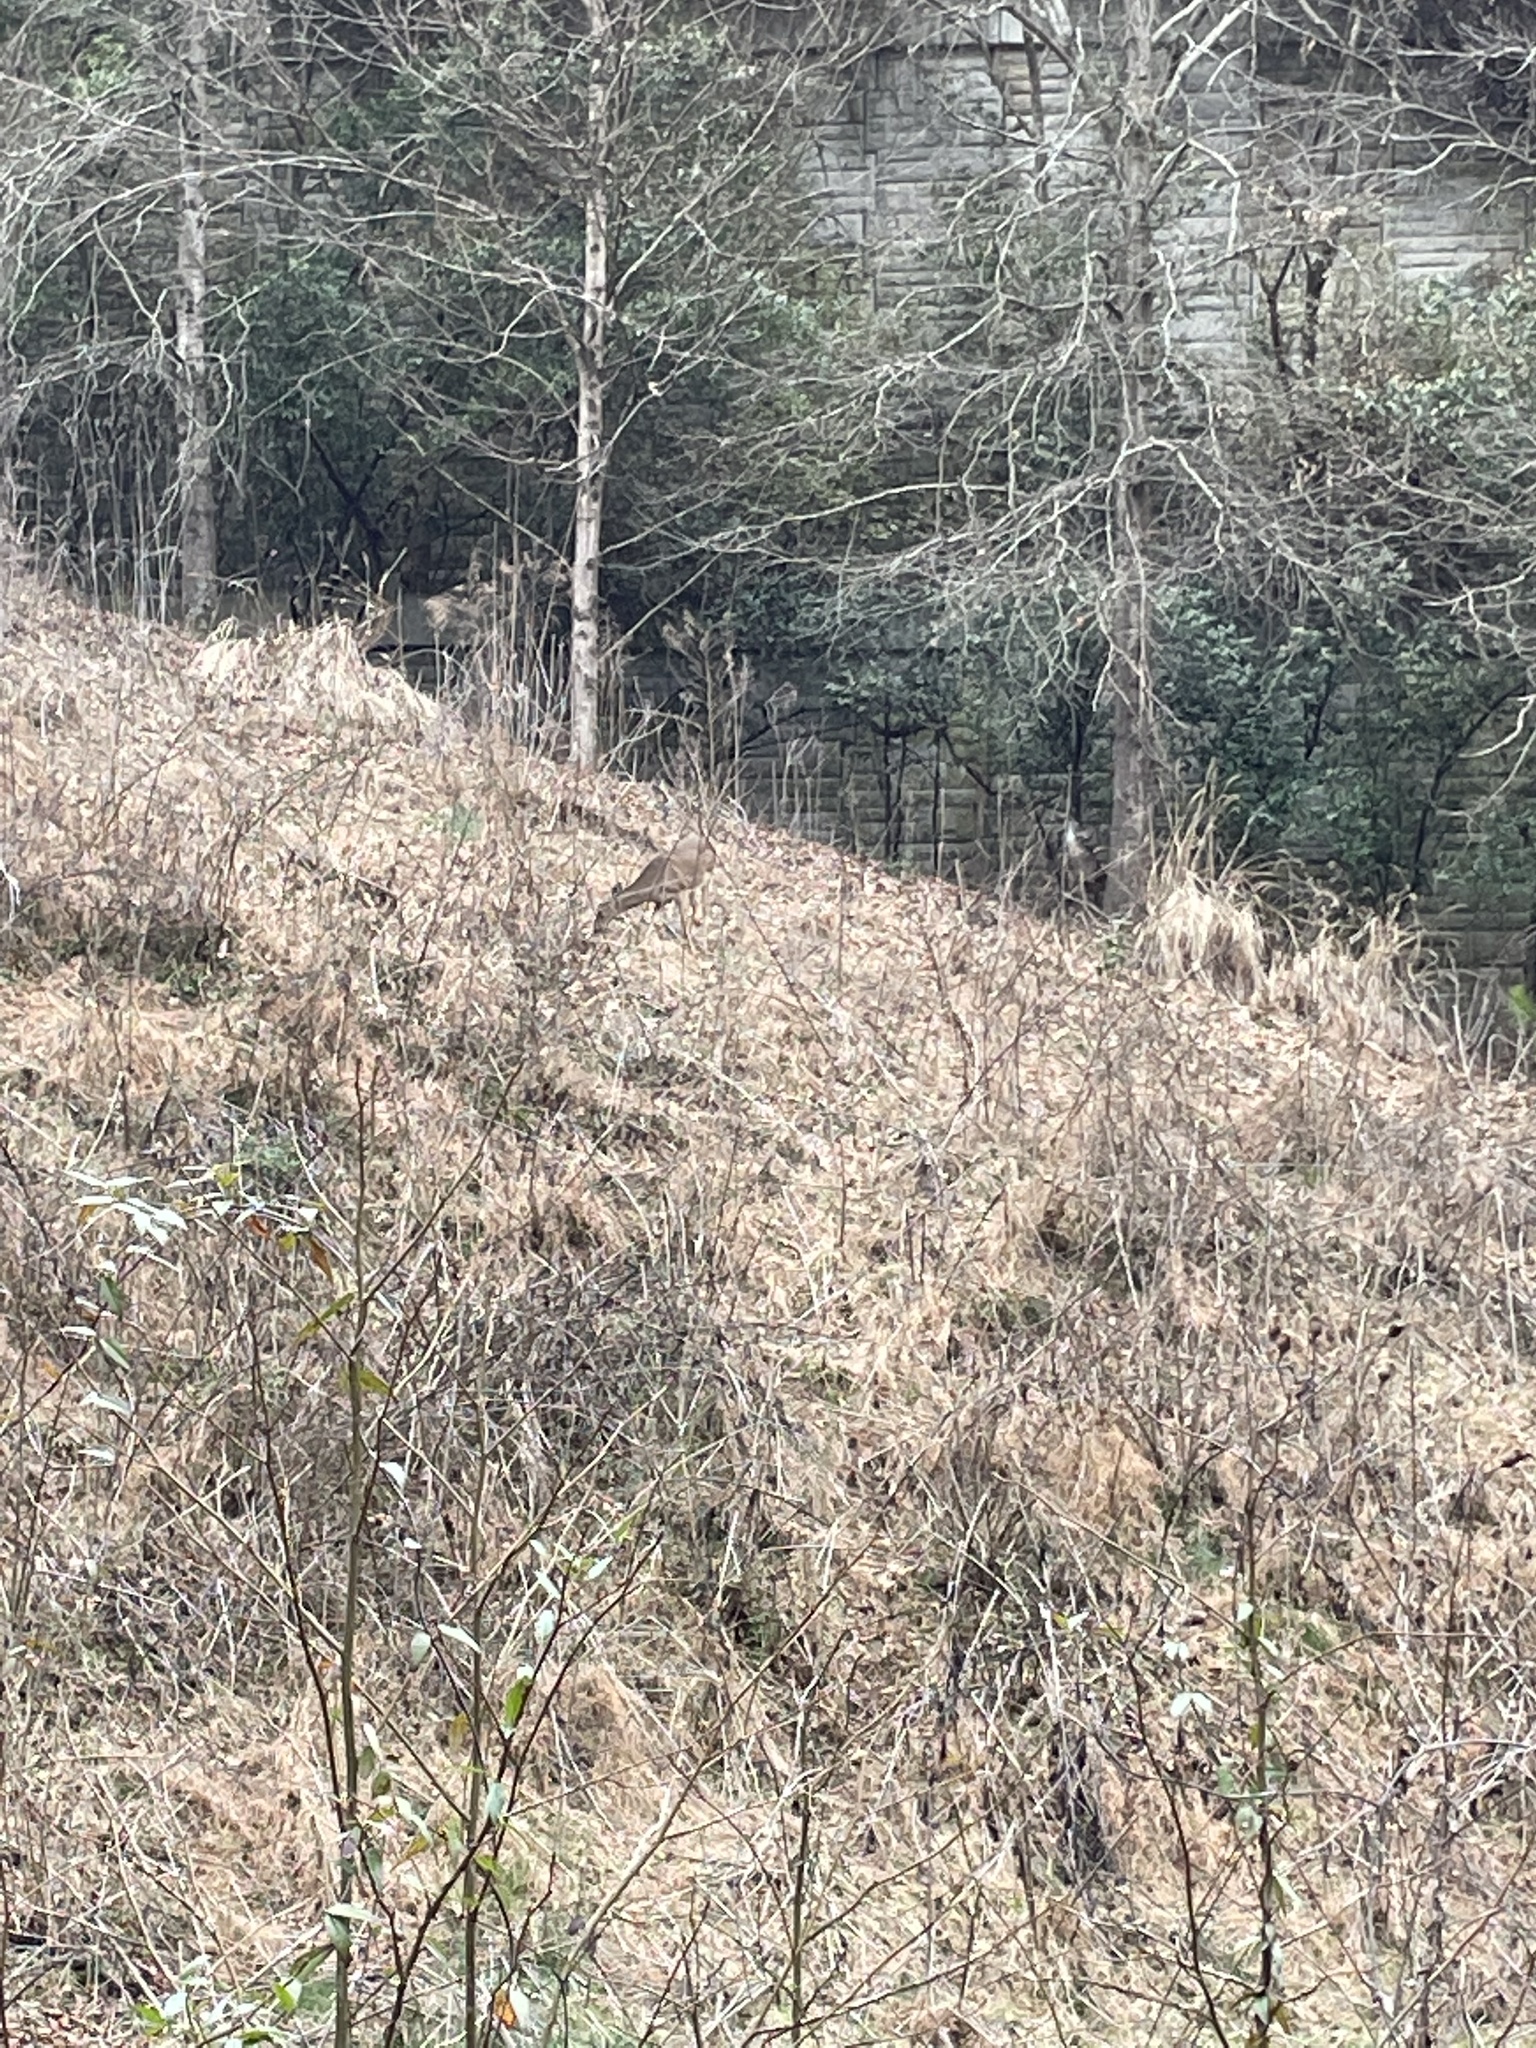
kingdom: Animalia
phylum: Chordata
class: Mammalia
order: Artiodactyla
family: Cervidae
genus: Odocoileus
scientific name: Odocoileus virginianus
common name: White-tailed deer
